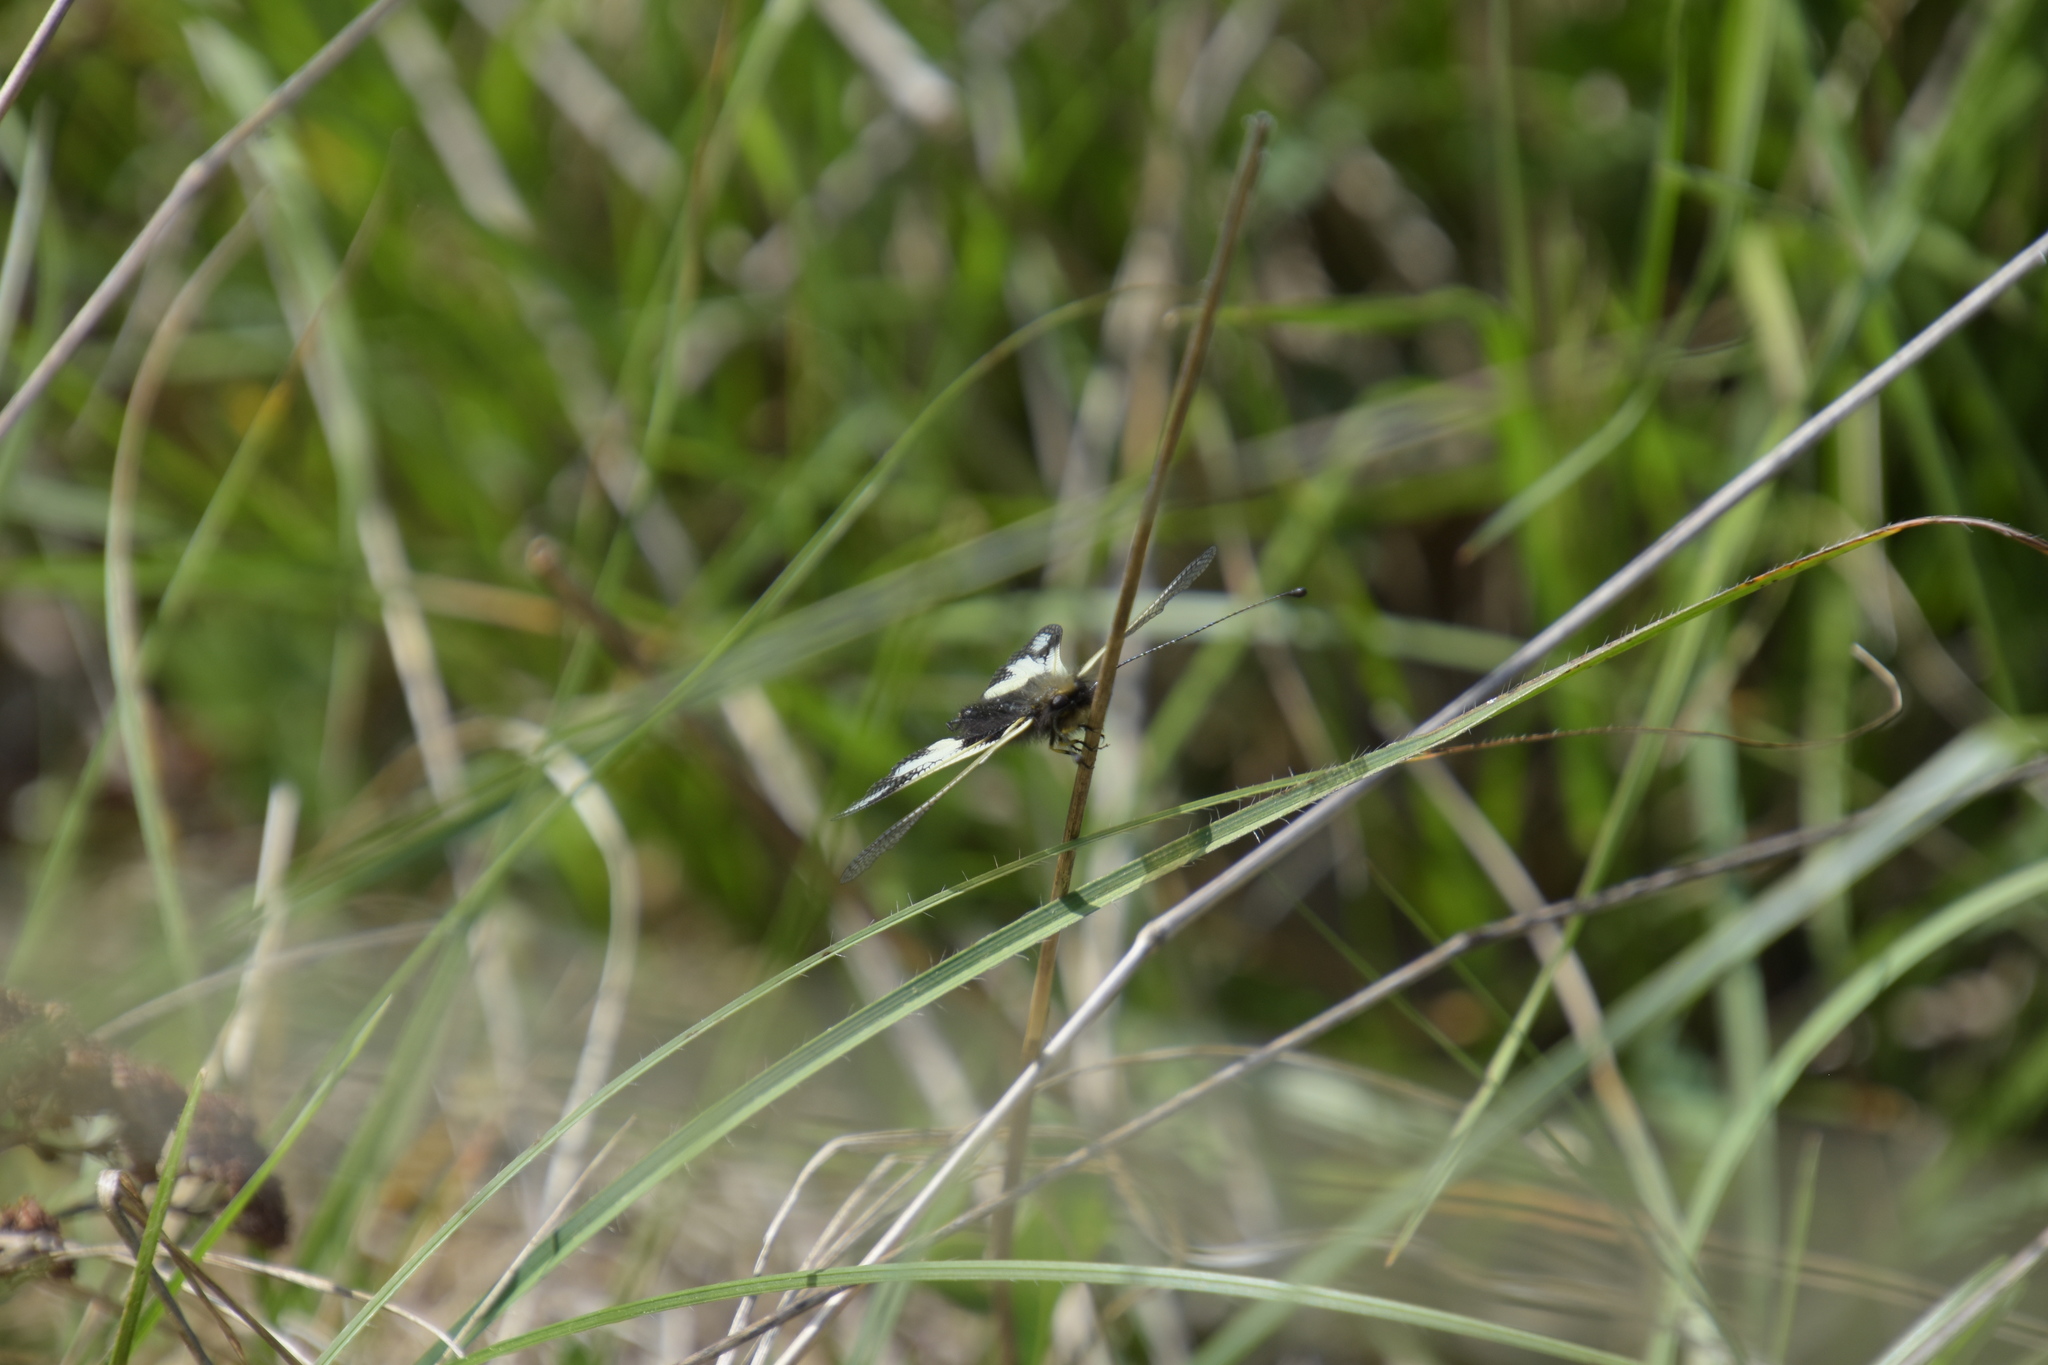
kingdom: Animalia
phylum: Arthropoda
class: Insecta
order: Neuroptera
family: Ascalaphidae
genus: Libelloides
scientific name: Libelloides coccajus
